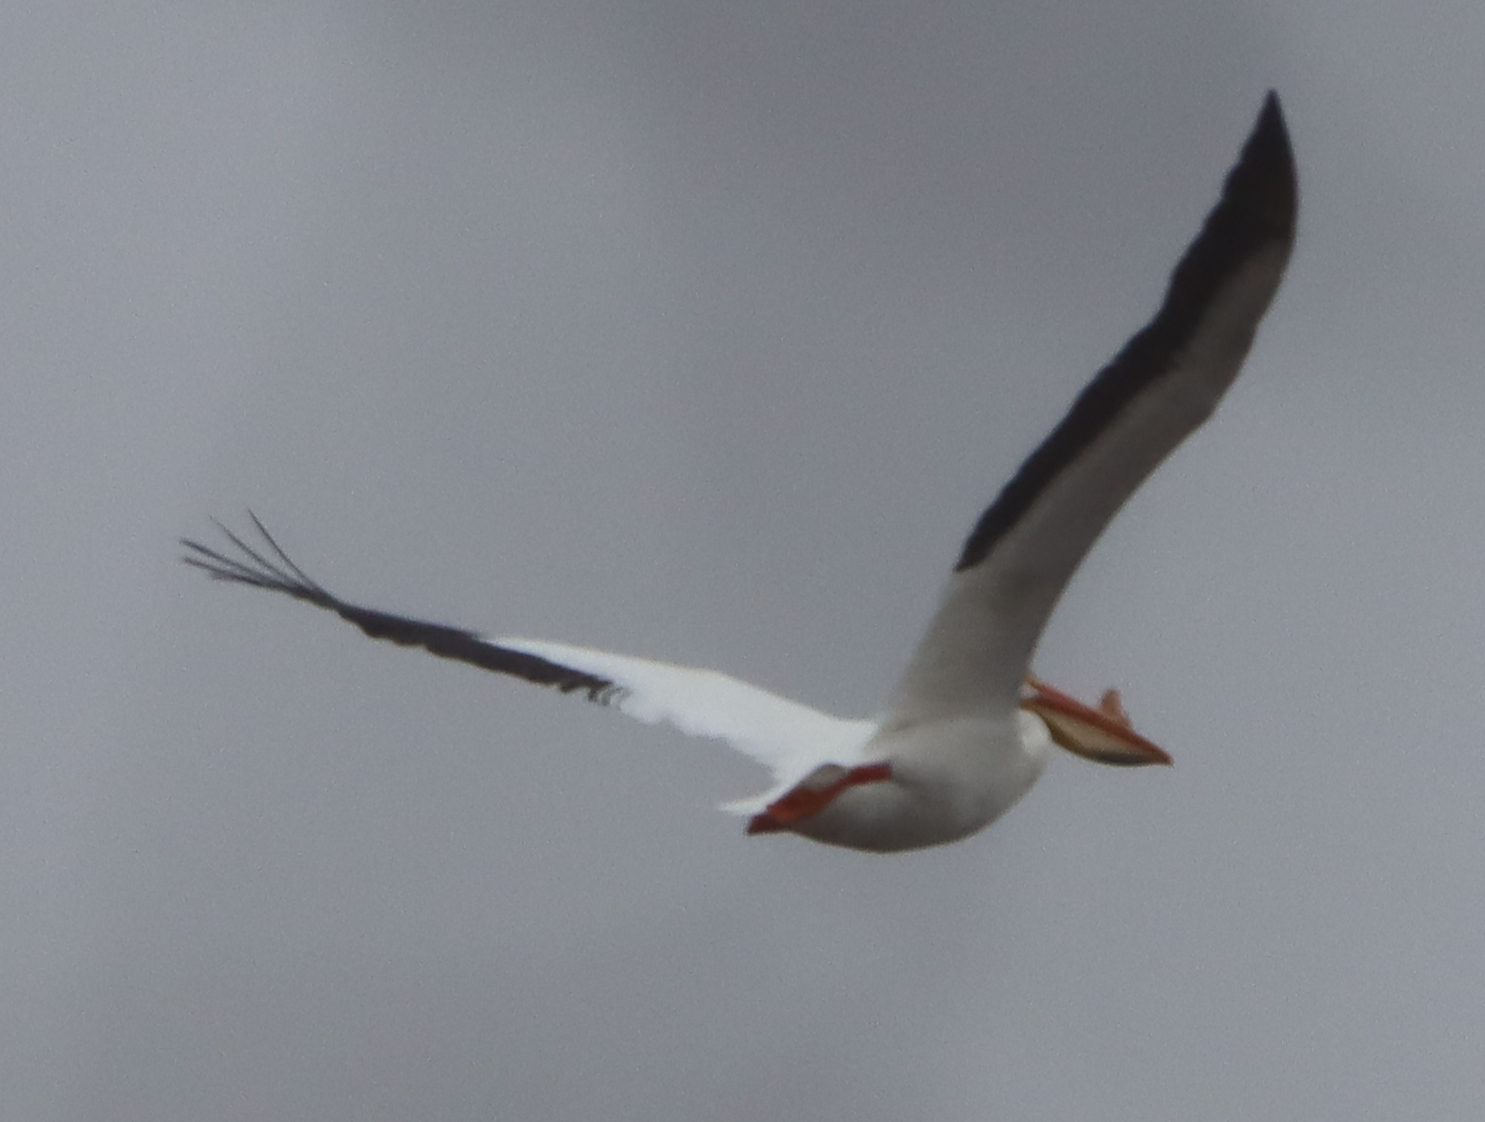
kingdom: Animalia
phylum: Chordata
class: Aves
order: Pelecaniformes
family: Pelecanidae
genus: Pelecanus
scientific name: Pelecanus erythrorhynchos
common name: American white pelican
